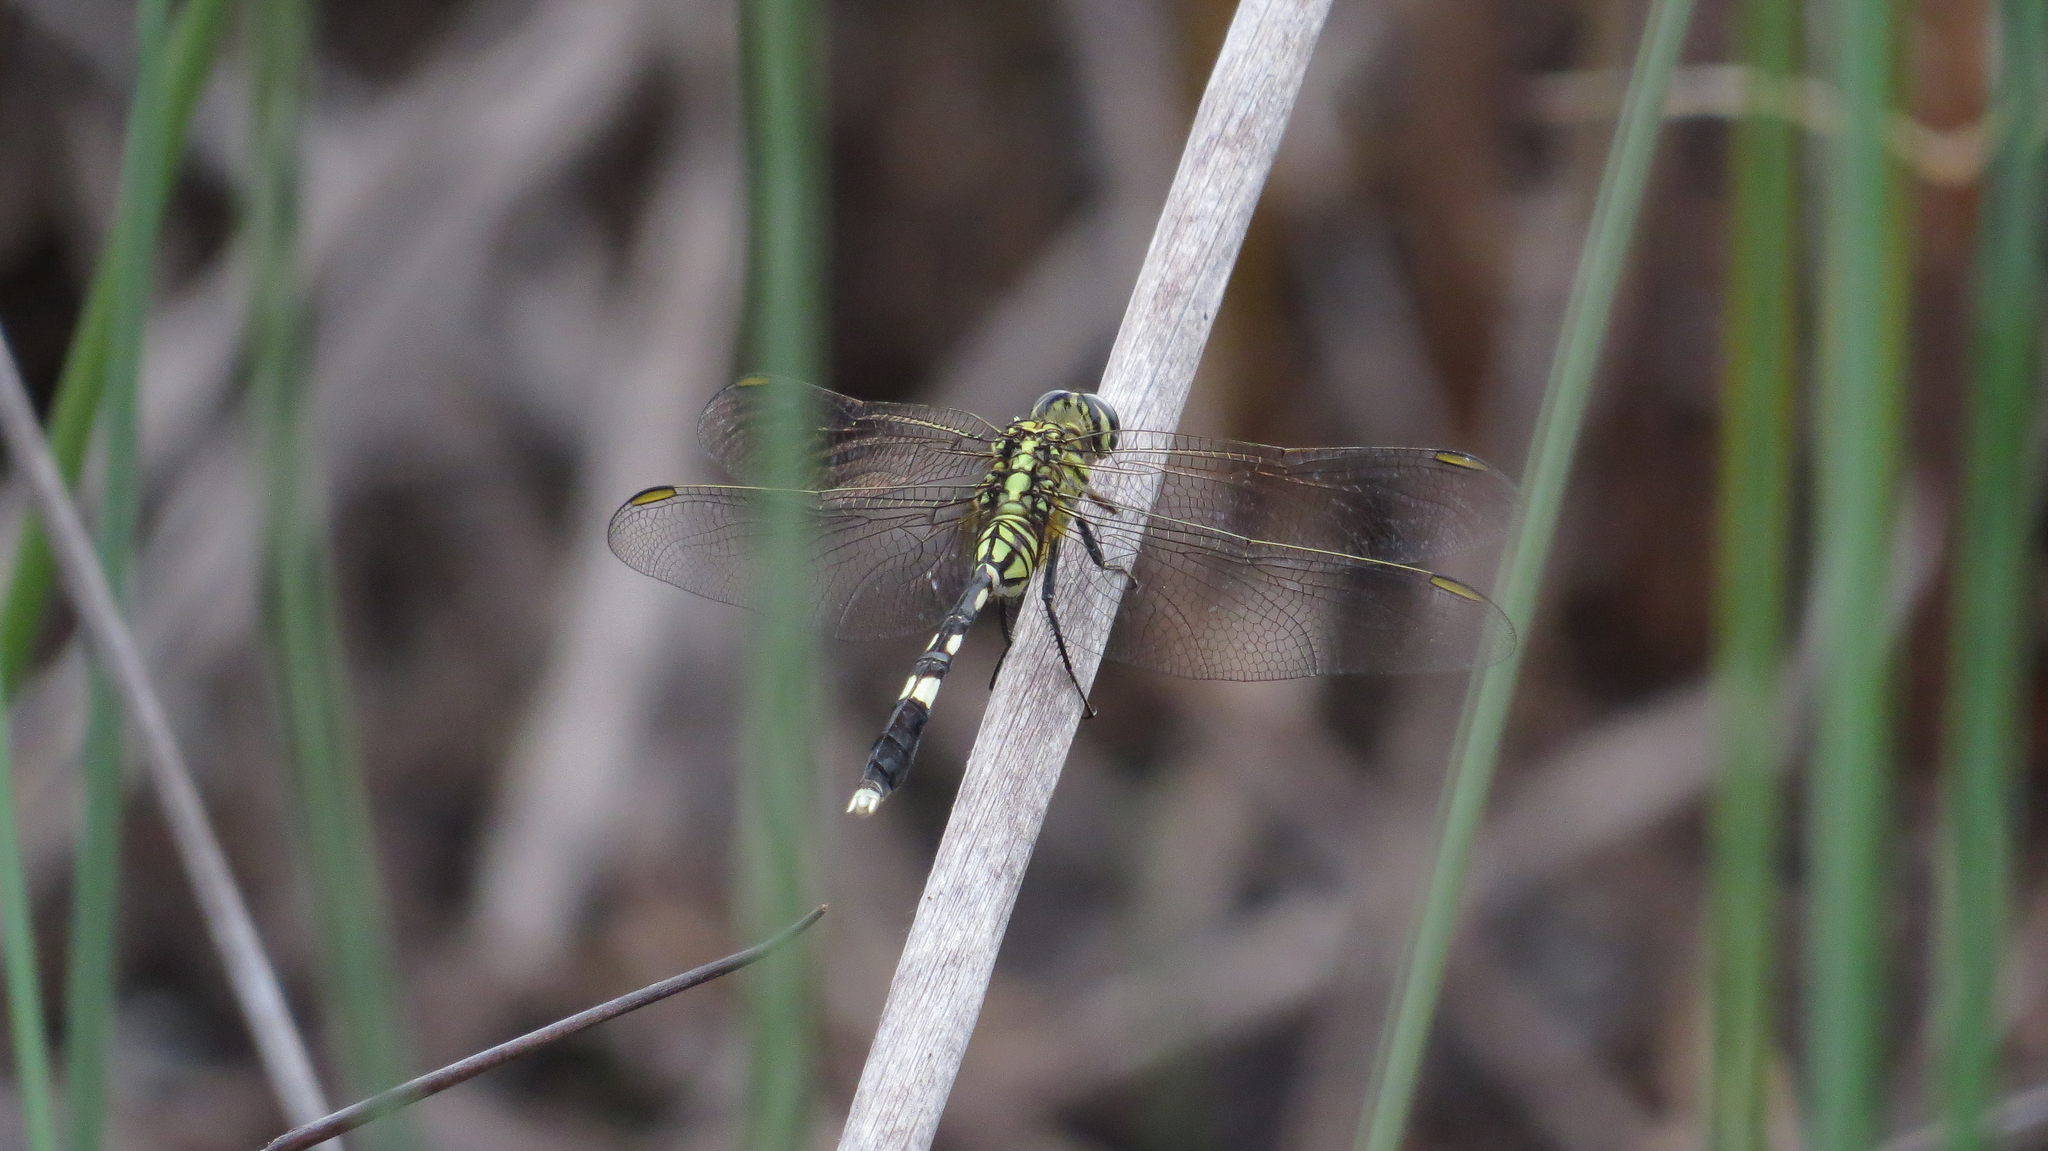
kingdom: Animalia
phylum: Arthropoda
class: Insecta
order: Odonata
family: Libellulidae
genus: Orthetrum
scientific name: Orthetrum sabina
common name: Slender skimmer
